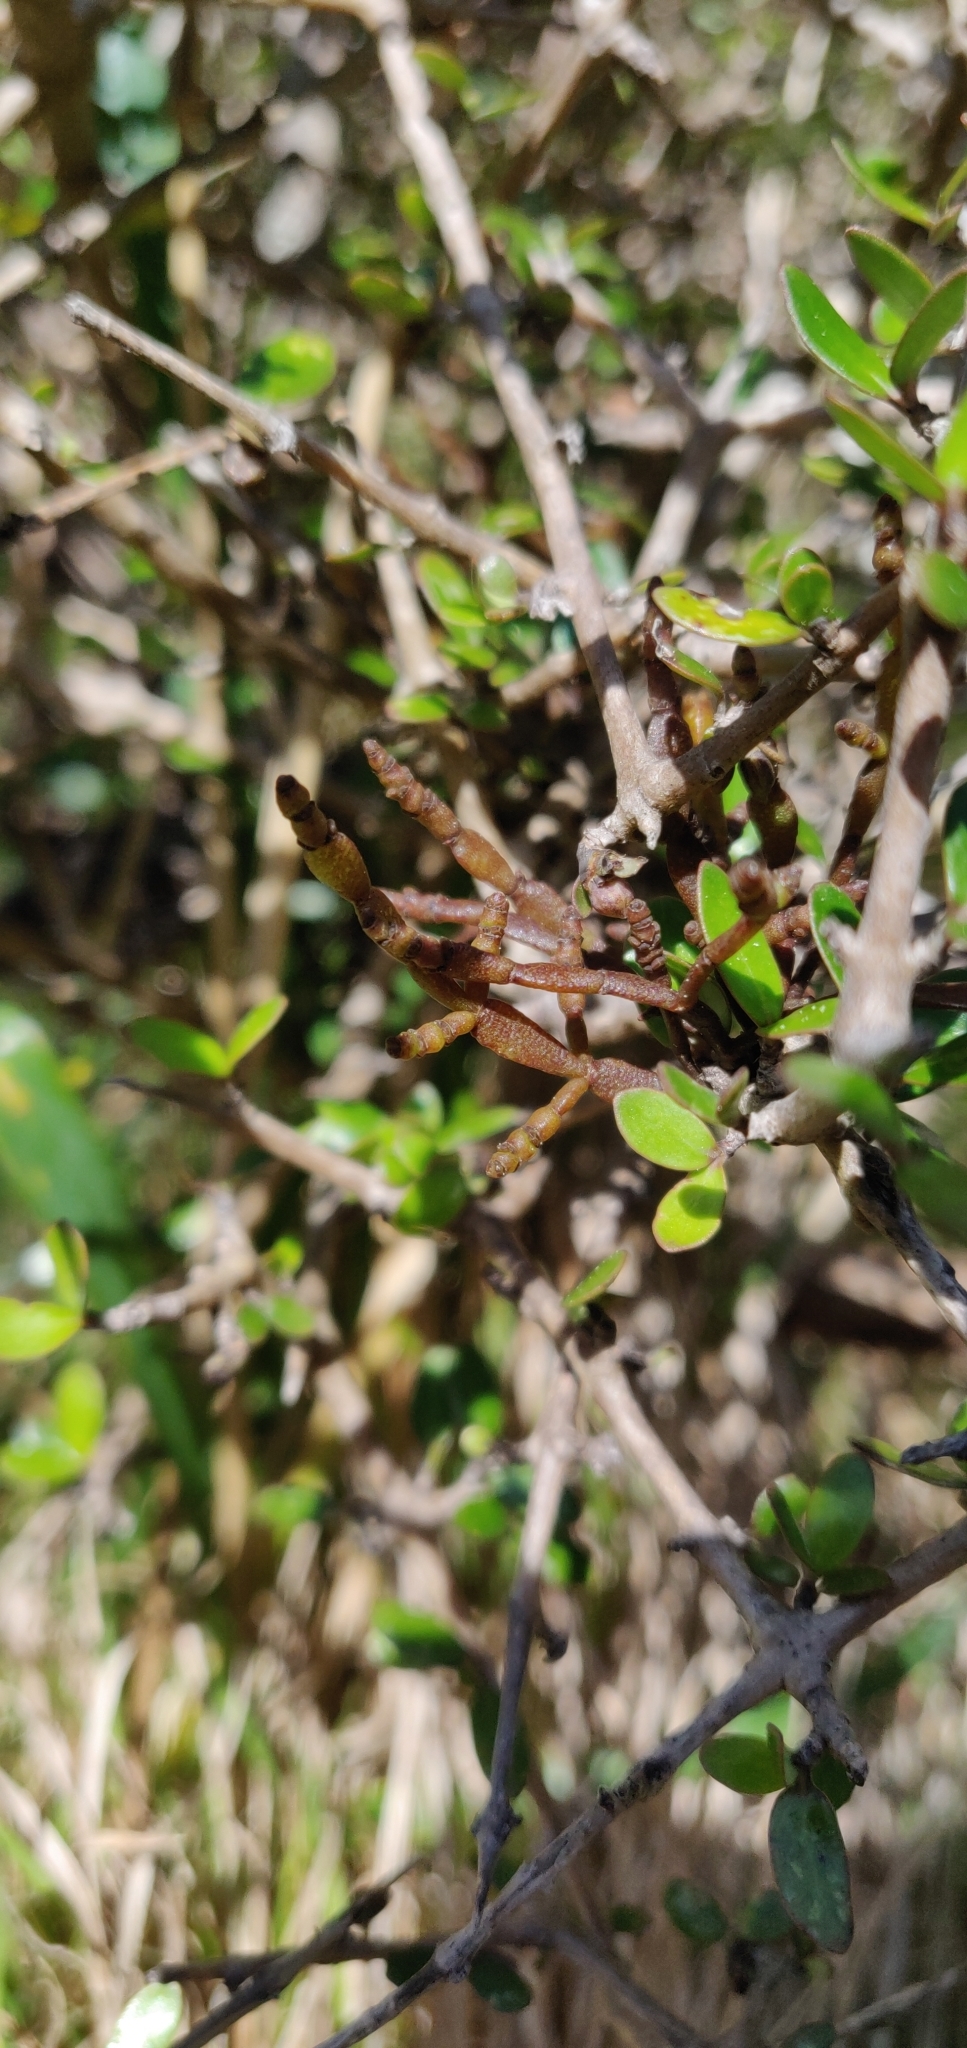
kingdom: Plantae
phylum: Tracheophyta
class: Magnoliopsida
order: Santalales
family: Viscaceae
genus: Korthalsella
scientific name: Korthalsella clavata
